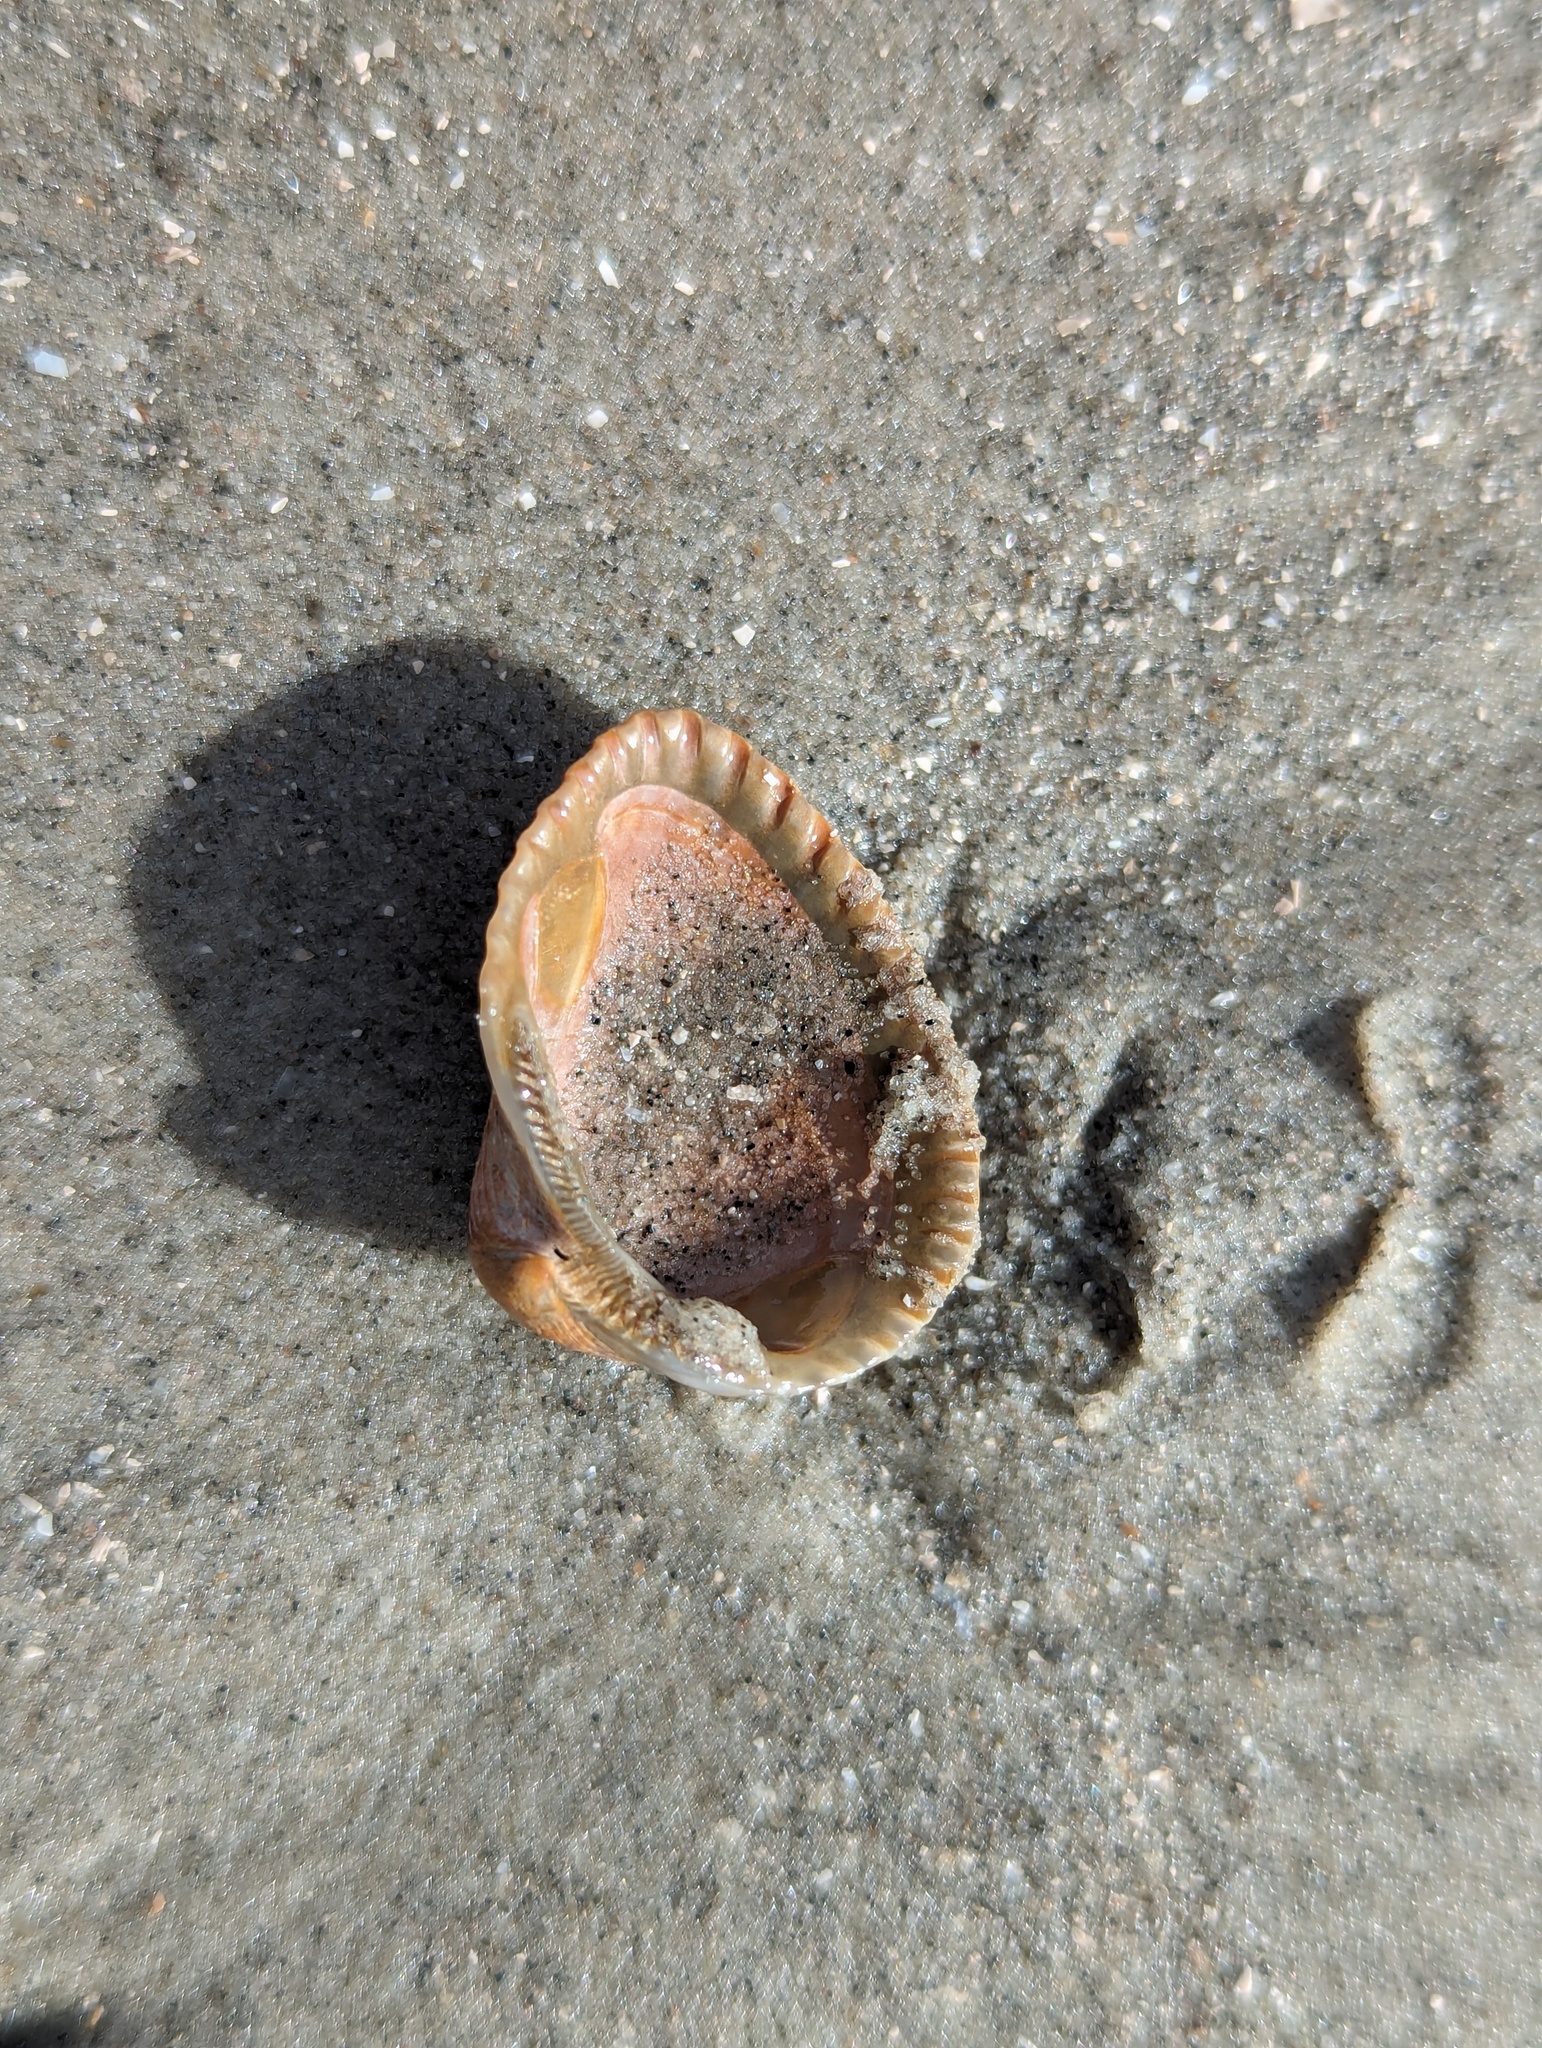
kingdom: Animalia
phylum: Mollusca
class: Bivalvia
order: Arcida
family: Noetiidae
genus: Noetia
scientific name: Noetia ponderosa
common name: Ponderous ark
